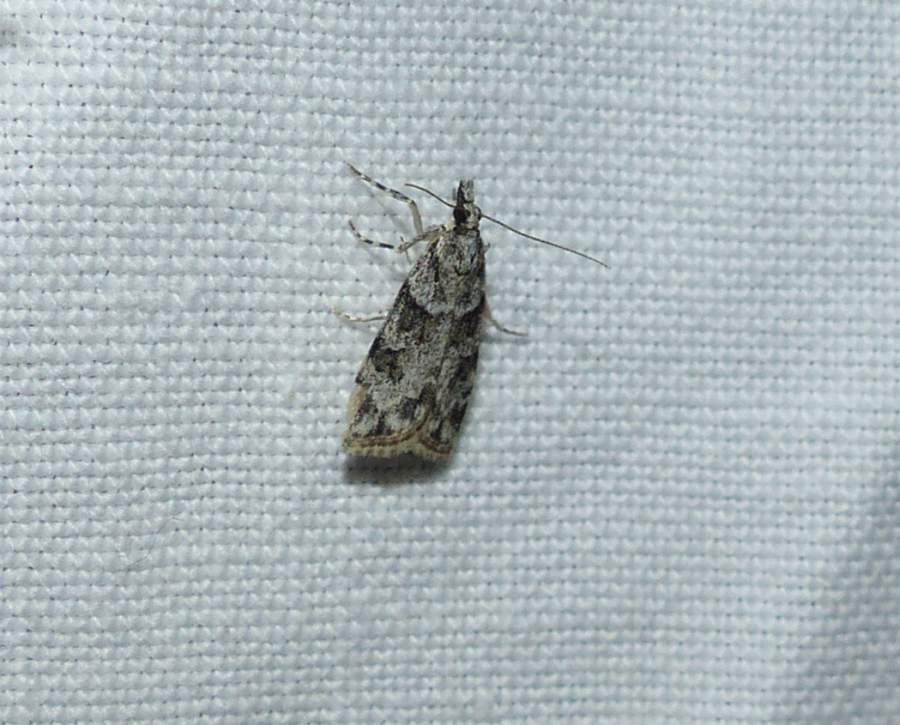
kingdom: Animalia
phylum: Arthropoda
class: Insecta
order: Lepidoptera
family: Crambidae
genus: Scoparia
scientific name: Scoparia biplagialis
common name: Double-striped scoparia moth
